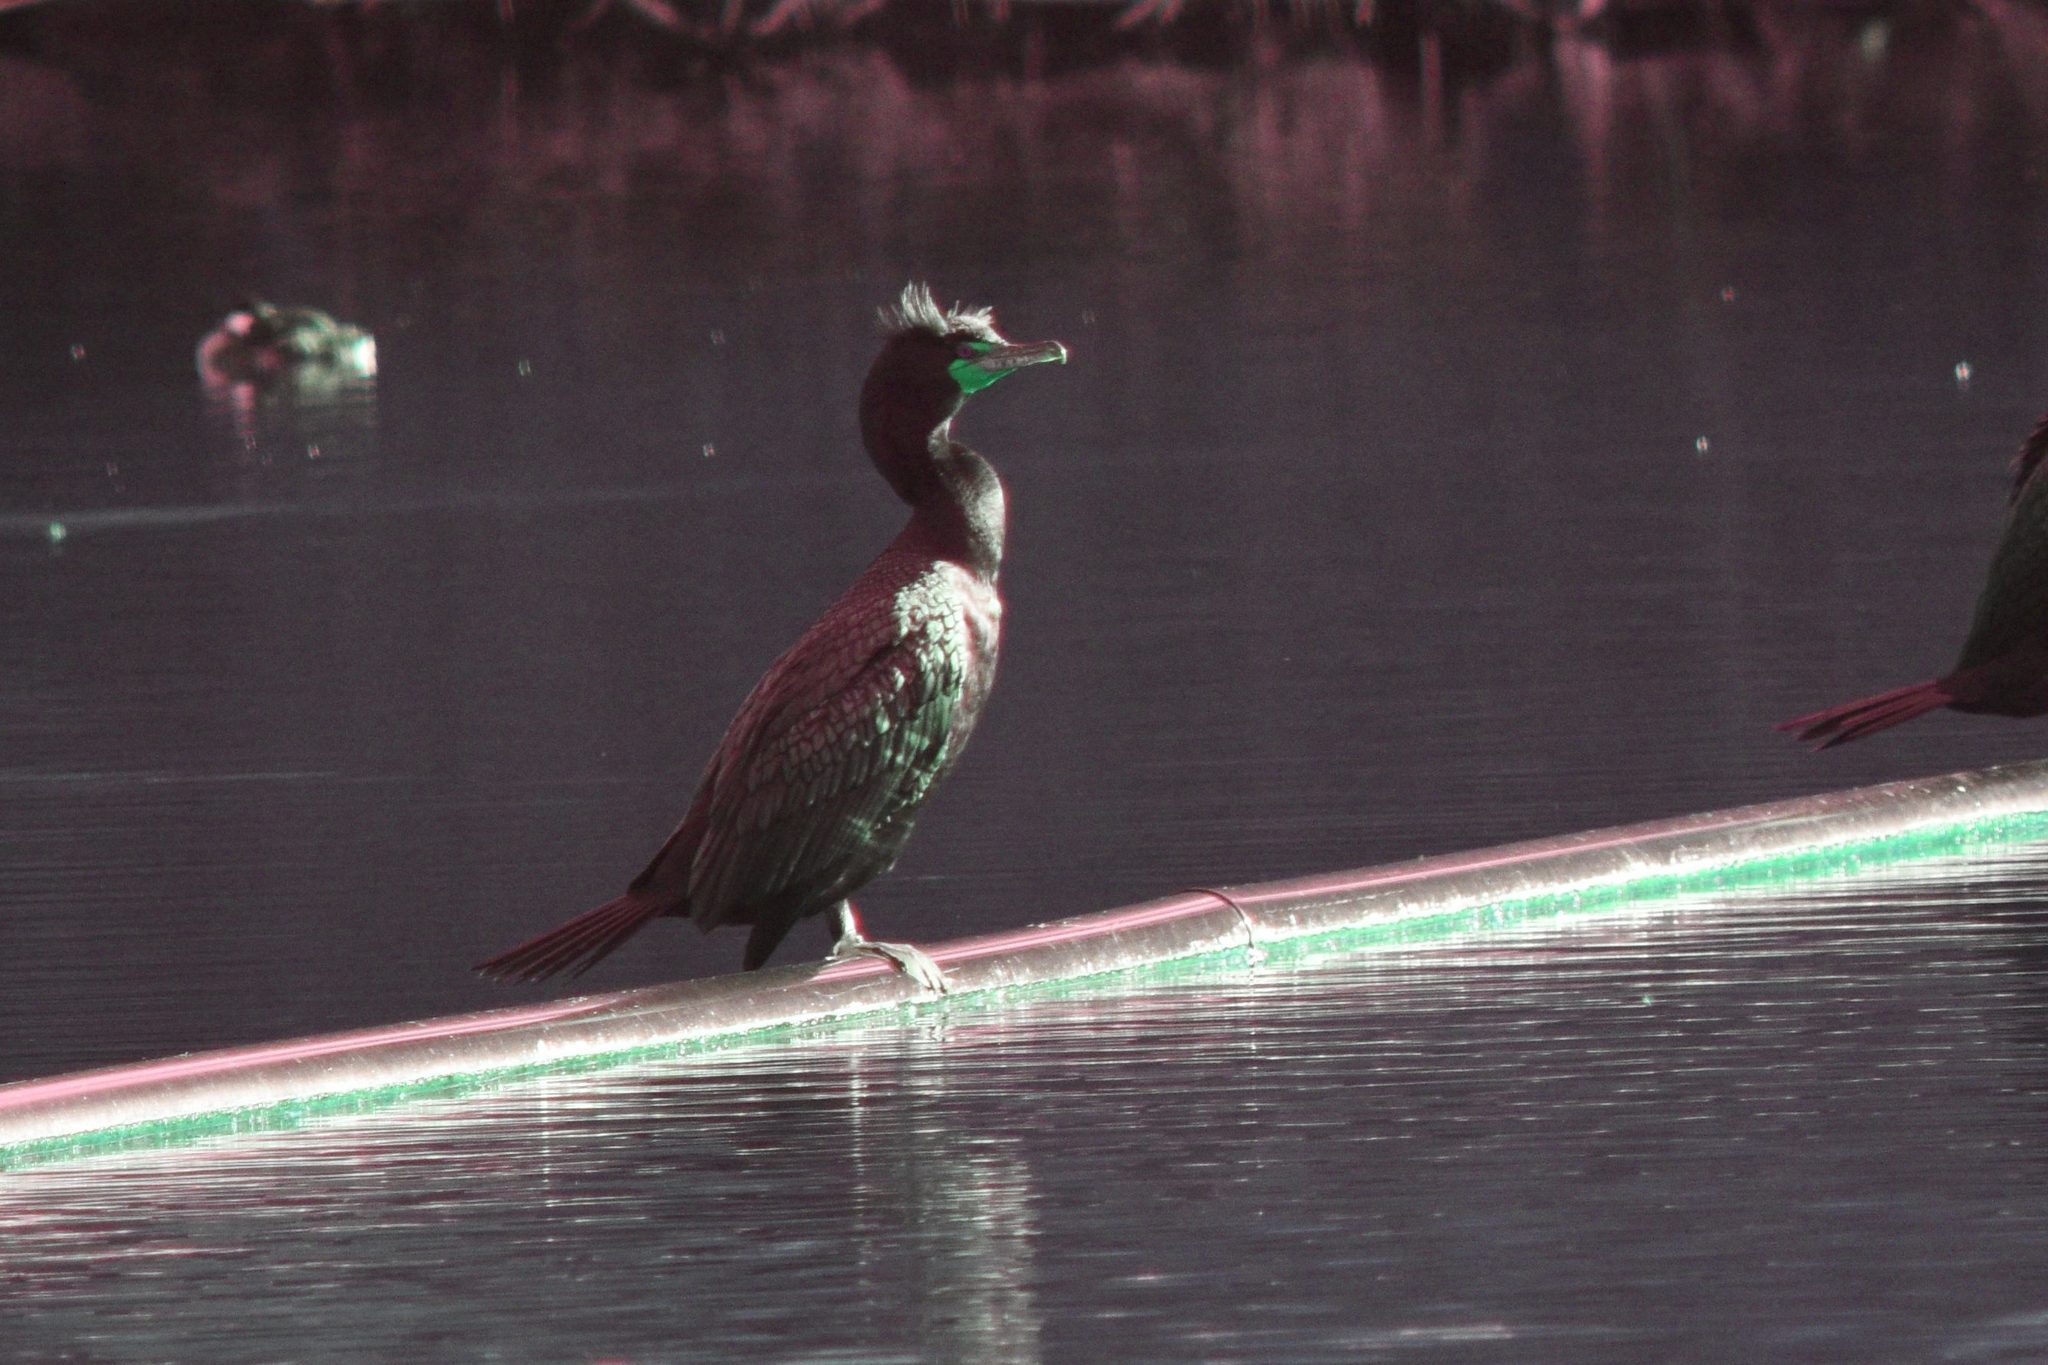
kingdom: Animalia
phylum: Chordata
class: Aves
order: Suliformes
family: Phalacrocoracidae
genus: Phalacrocorax
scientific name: Phalacrocorax auritus
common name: Double-crested cormorant
